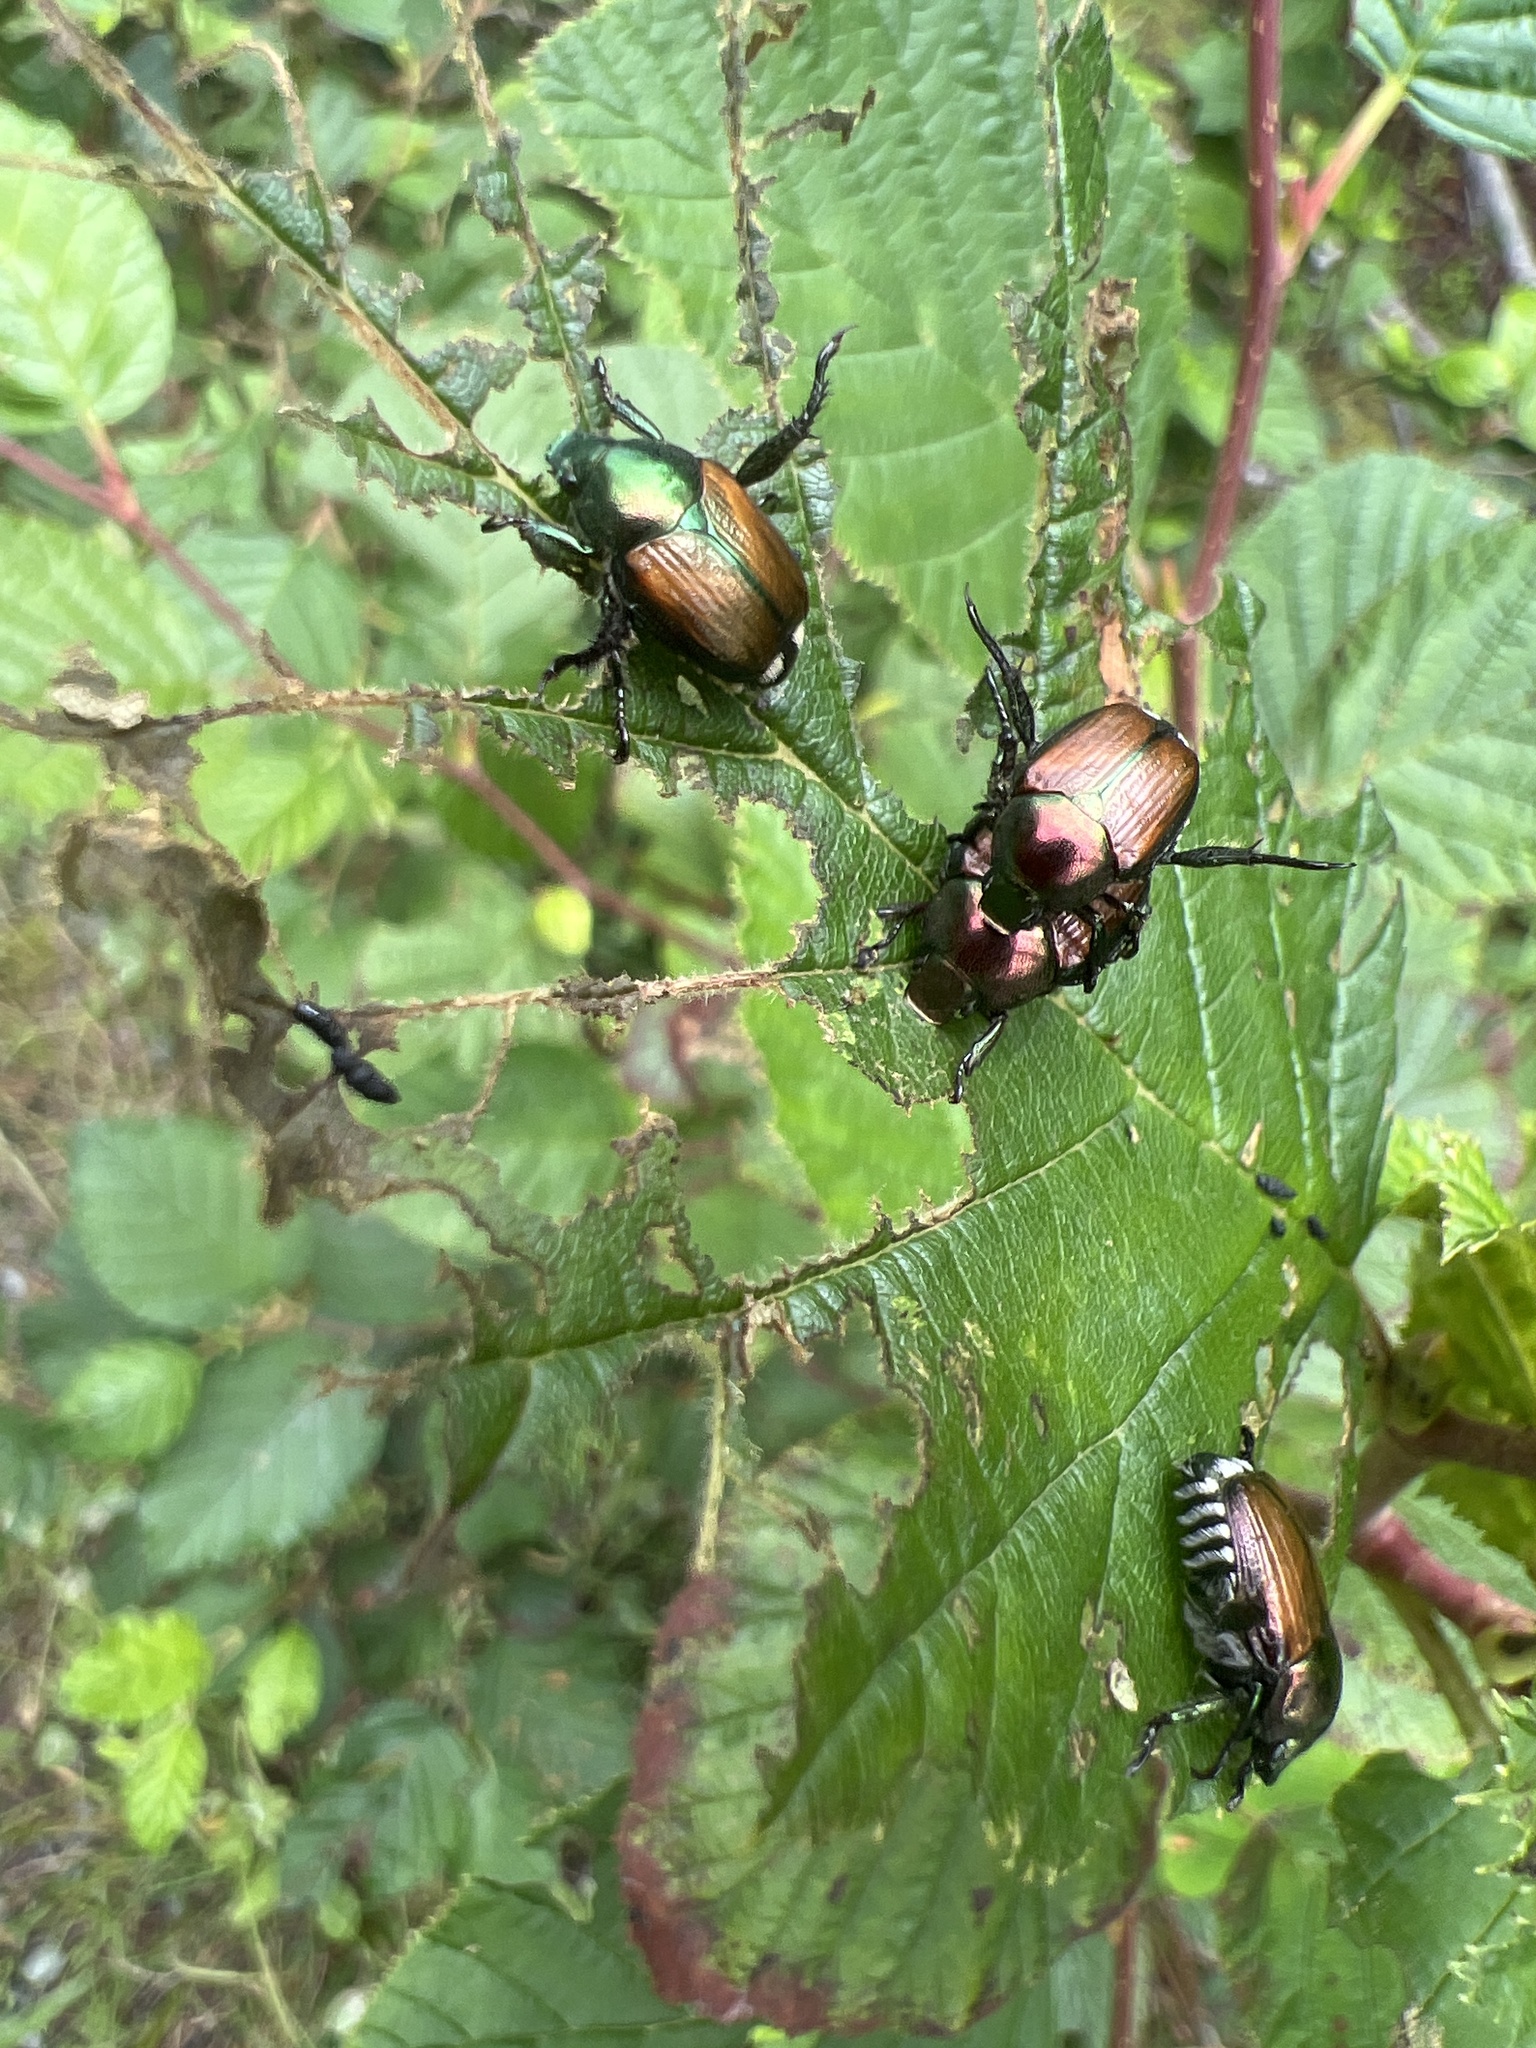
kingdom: Animalia
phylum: Arthropoda
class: Insecta
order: Coleoptera
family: Scarabaeidae
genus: Popillia
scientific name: Popillia japonica
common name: Japanese beetle
